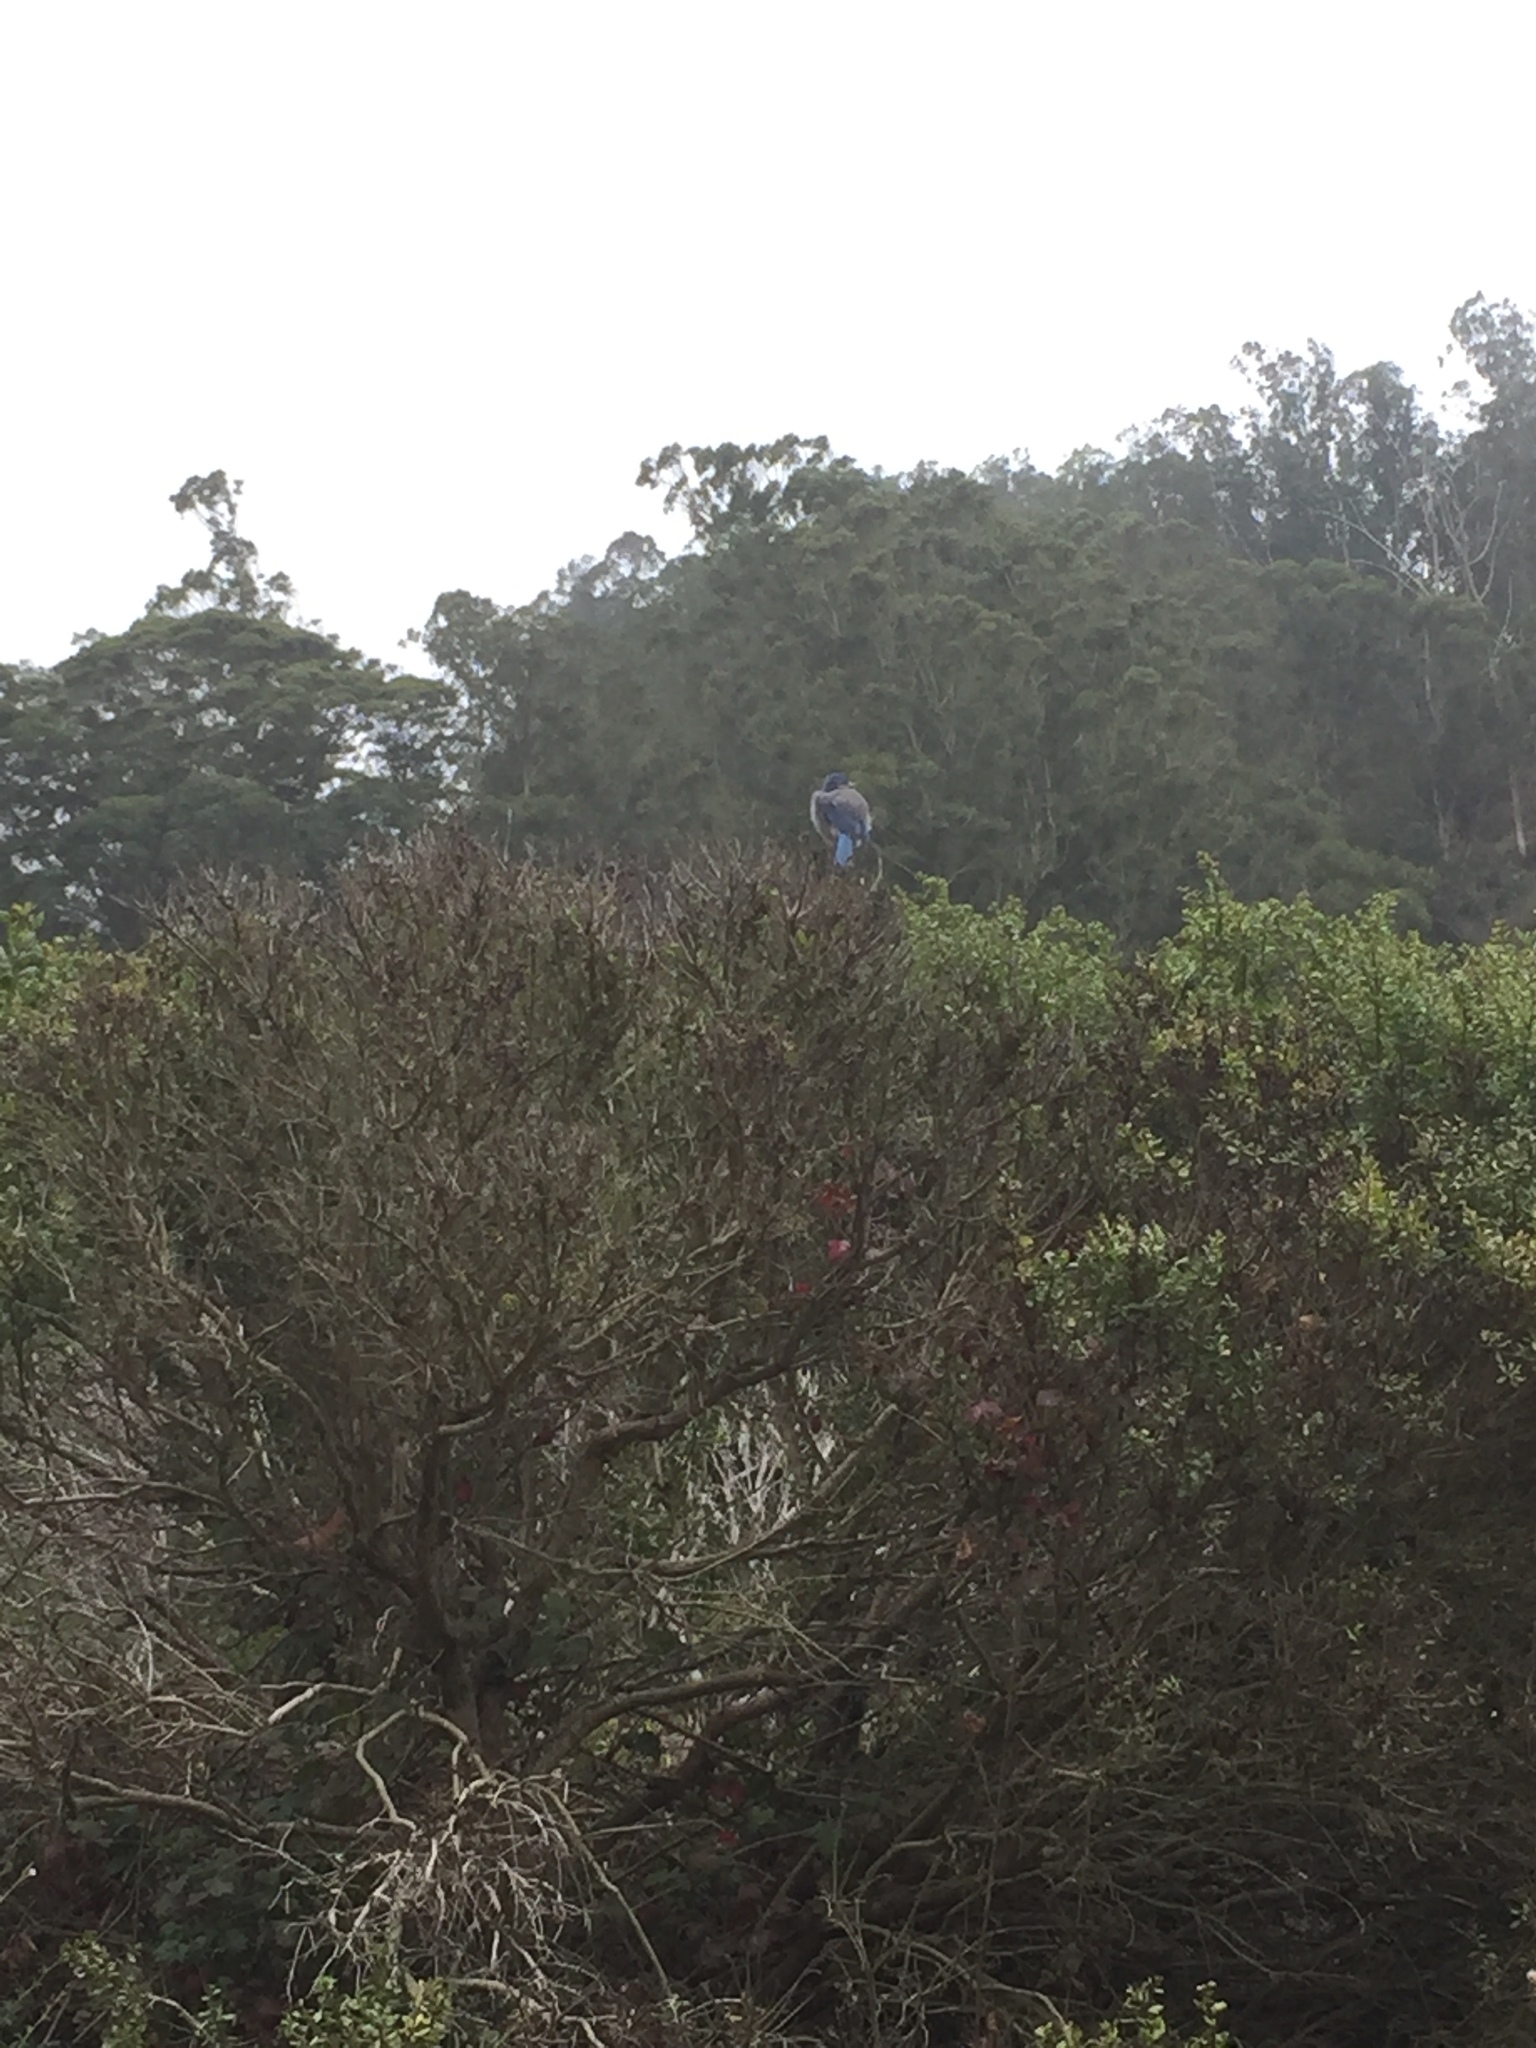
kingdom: Animalia
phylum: Chordata
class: Aves
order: Passeriformes
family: Corvidae
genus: Aphelocoma
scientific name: Aphelocoma californica
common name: California scrub-jay
